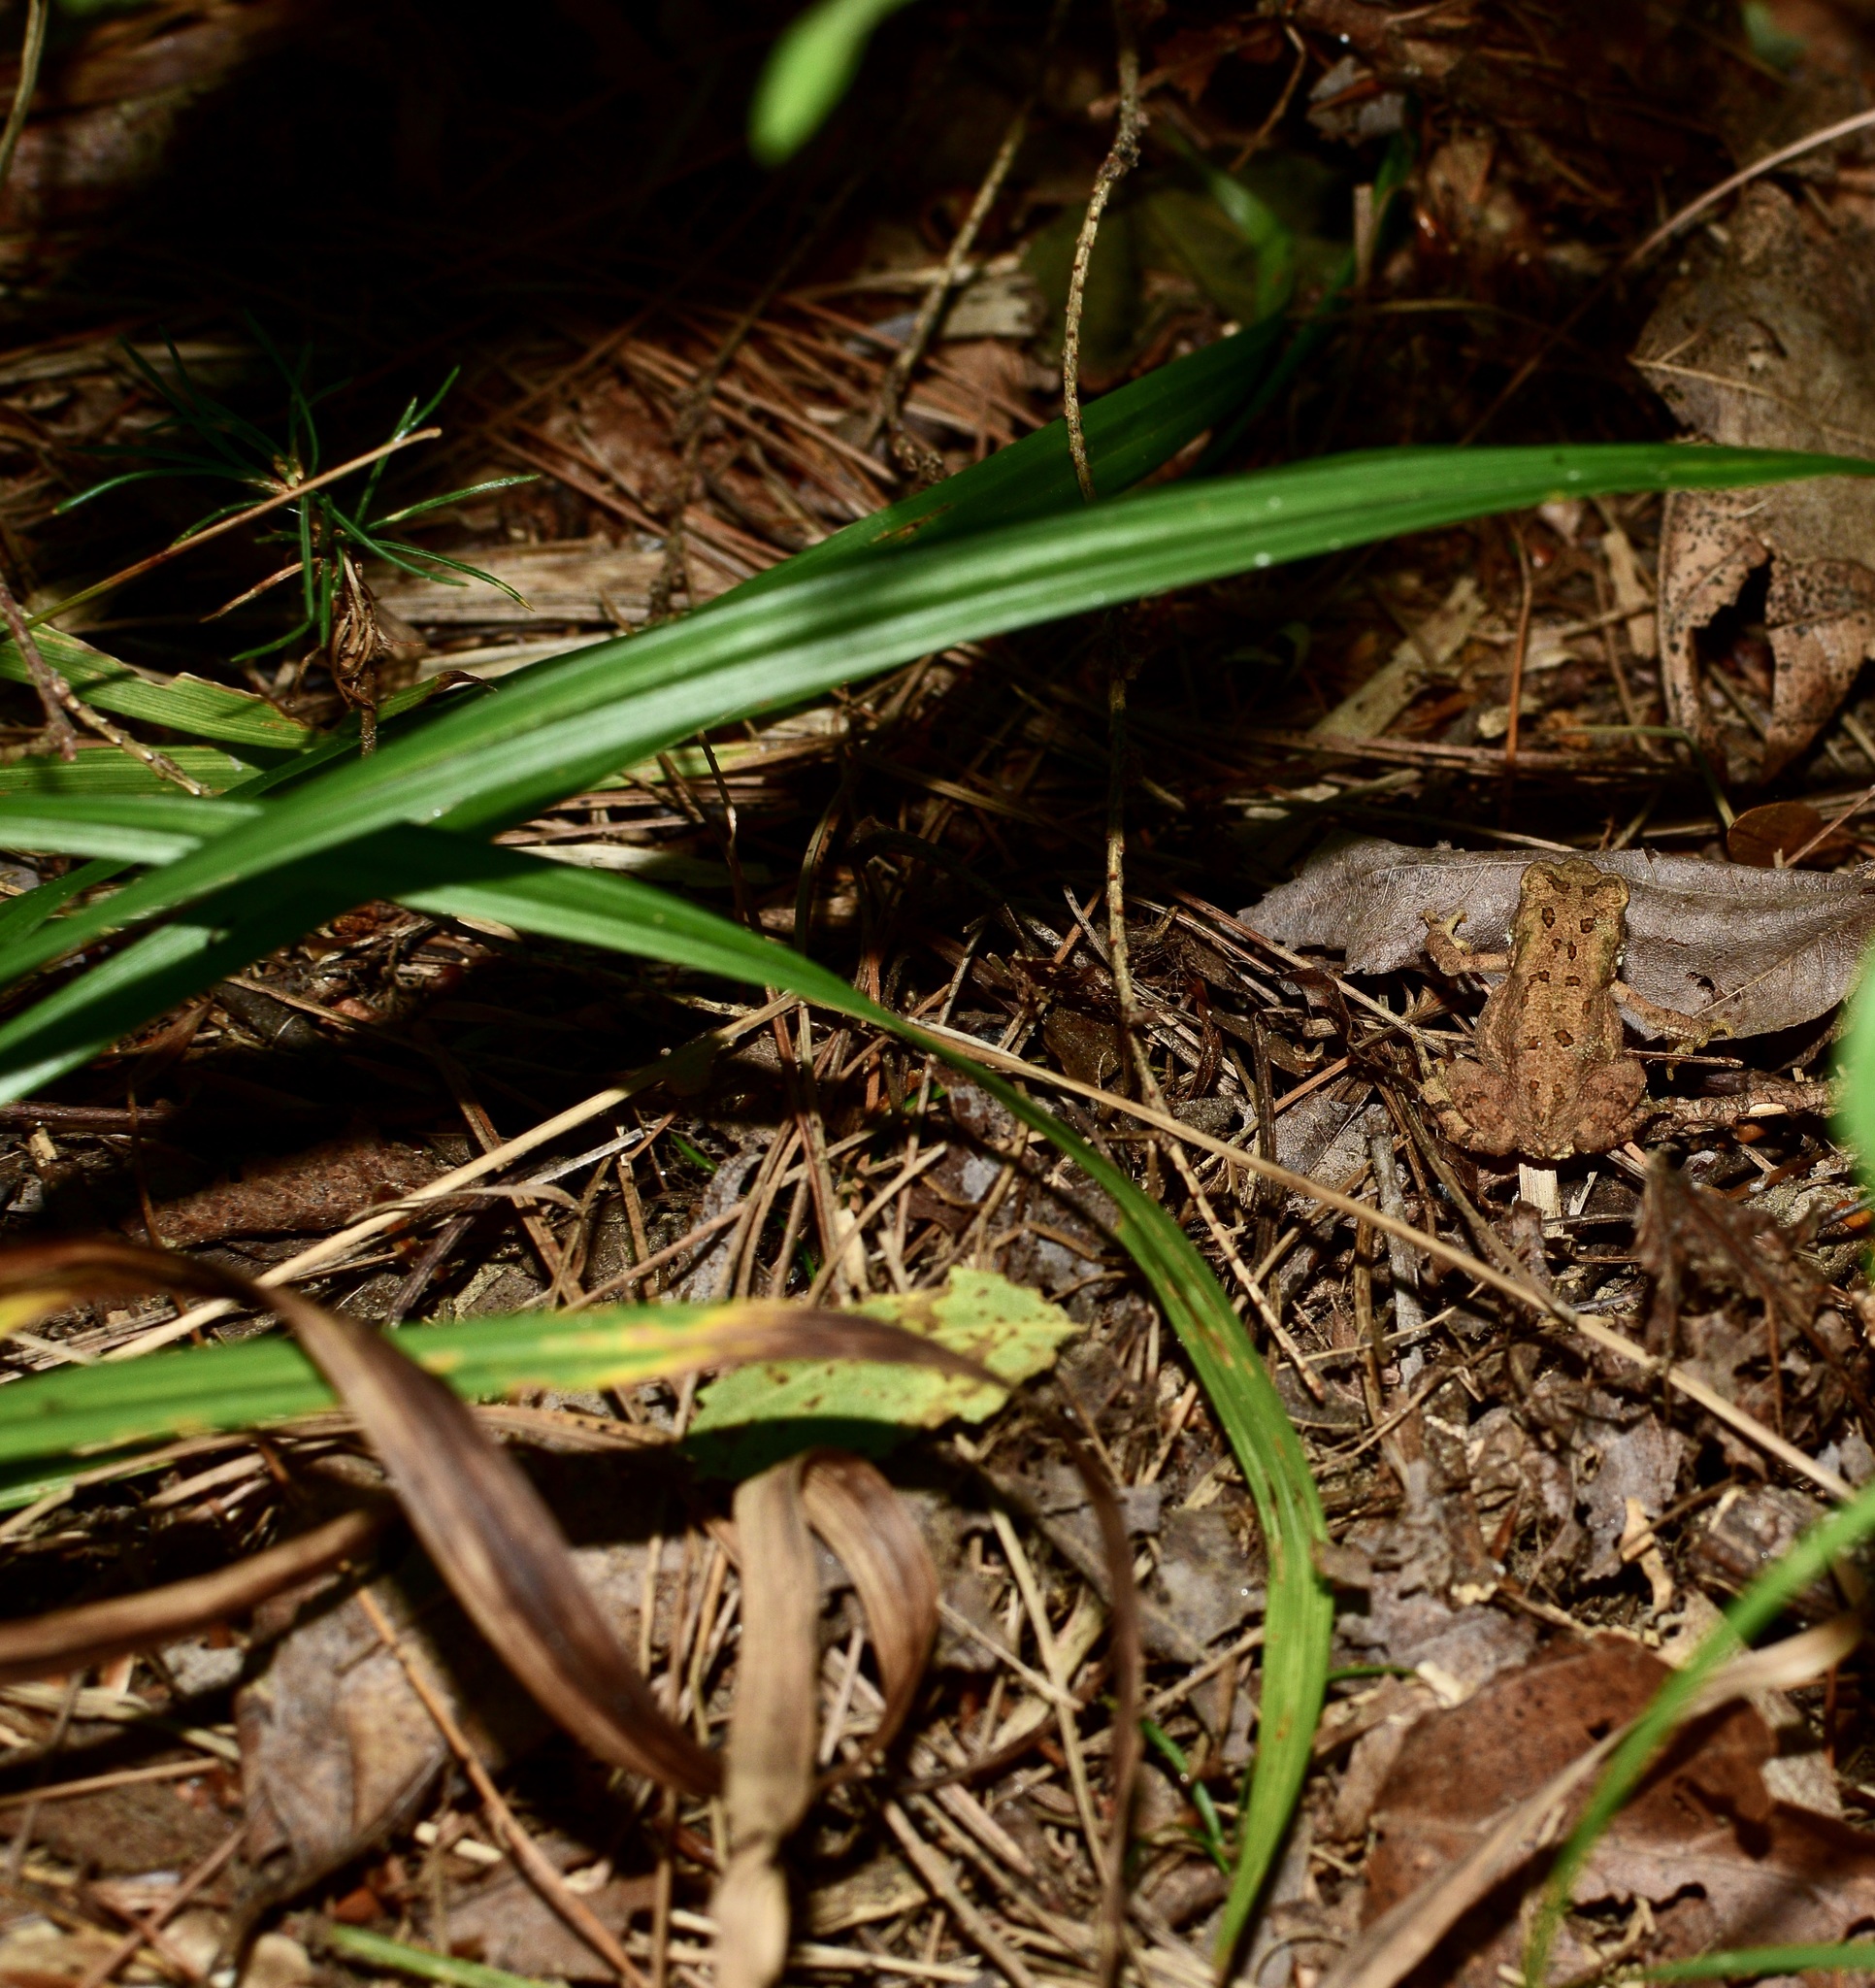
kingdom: Animalia
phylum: Chordata
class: Amphibia
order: Anura
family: Bufonidae
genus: Anaxyrus
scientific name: Anaxyrus americanus
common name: American toad
